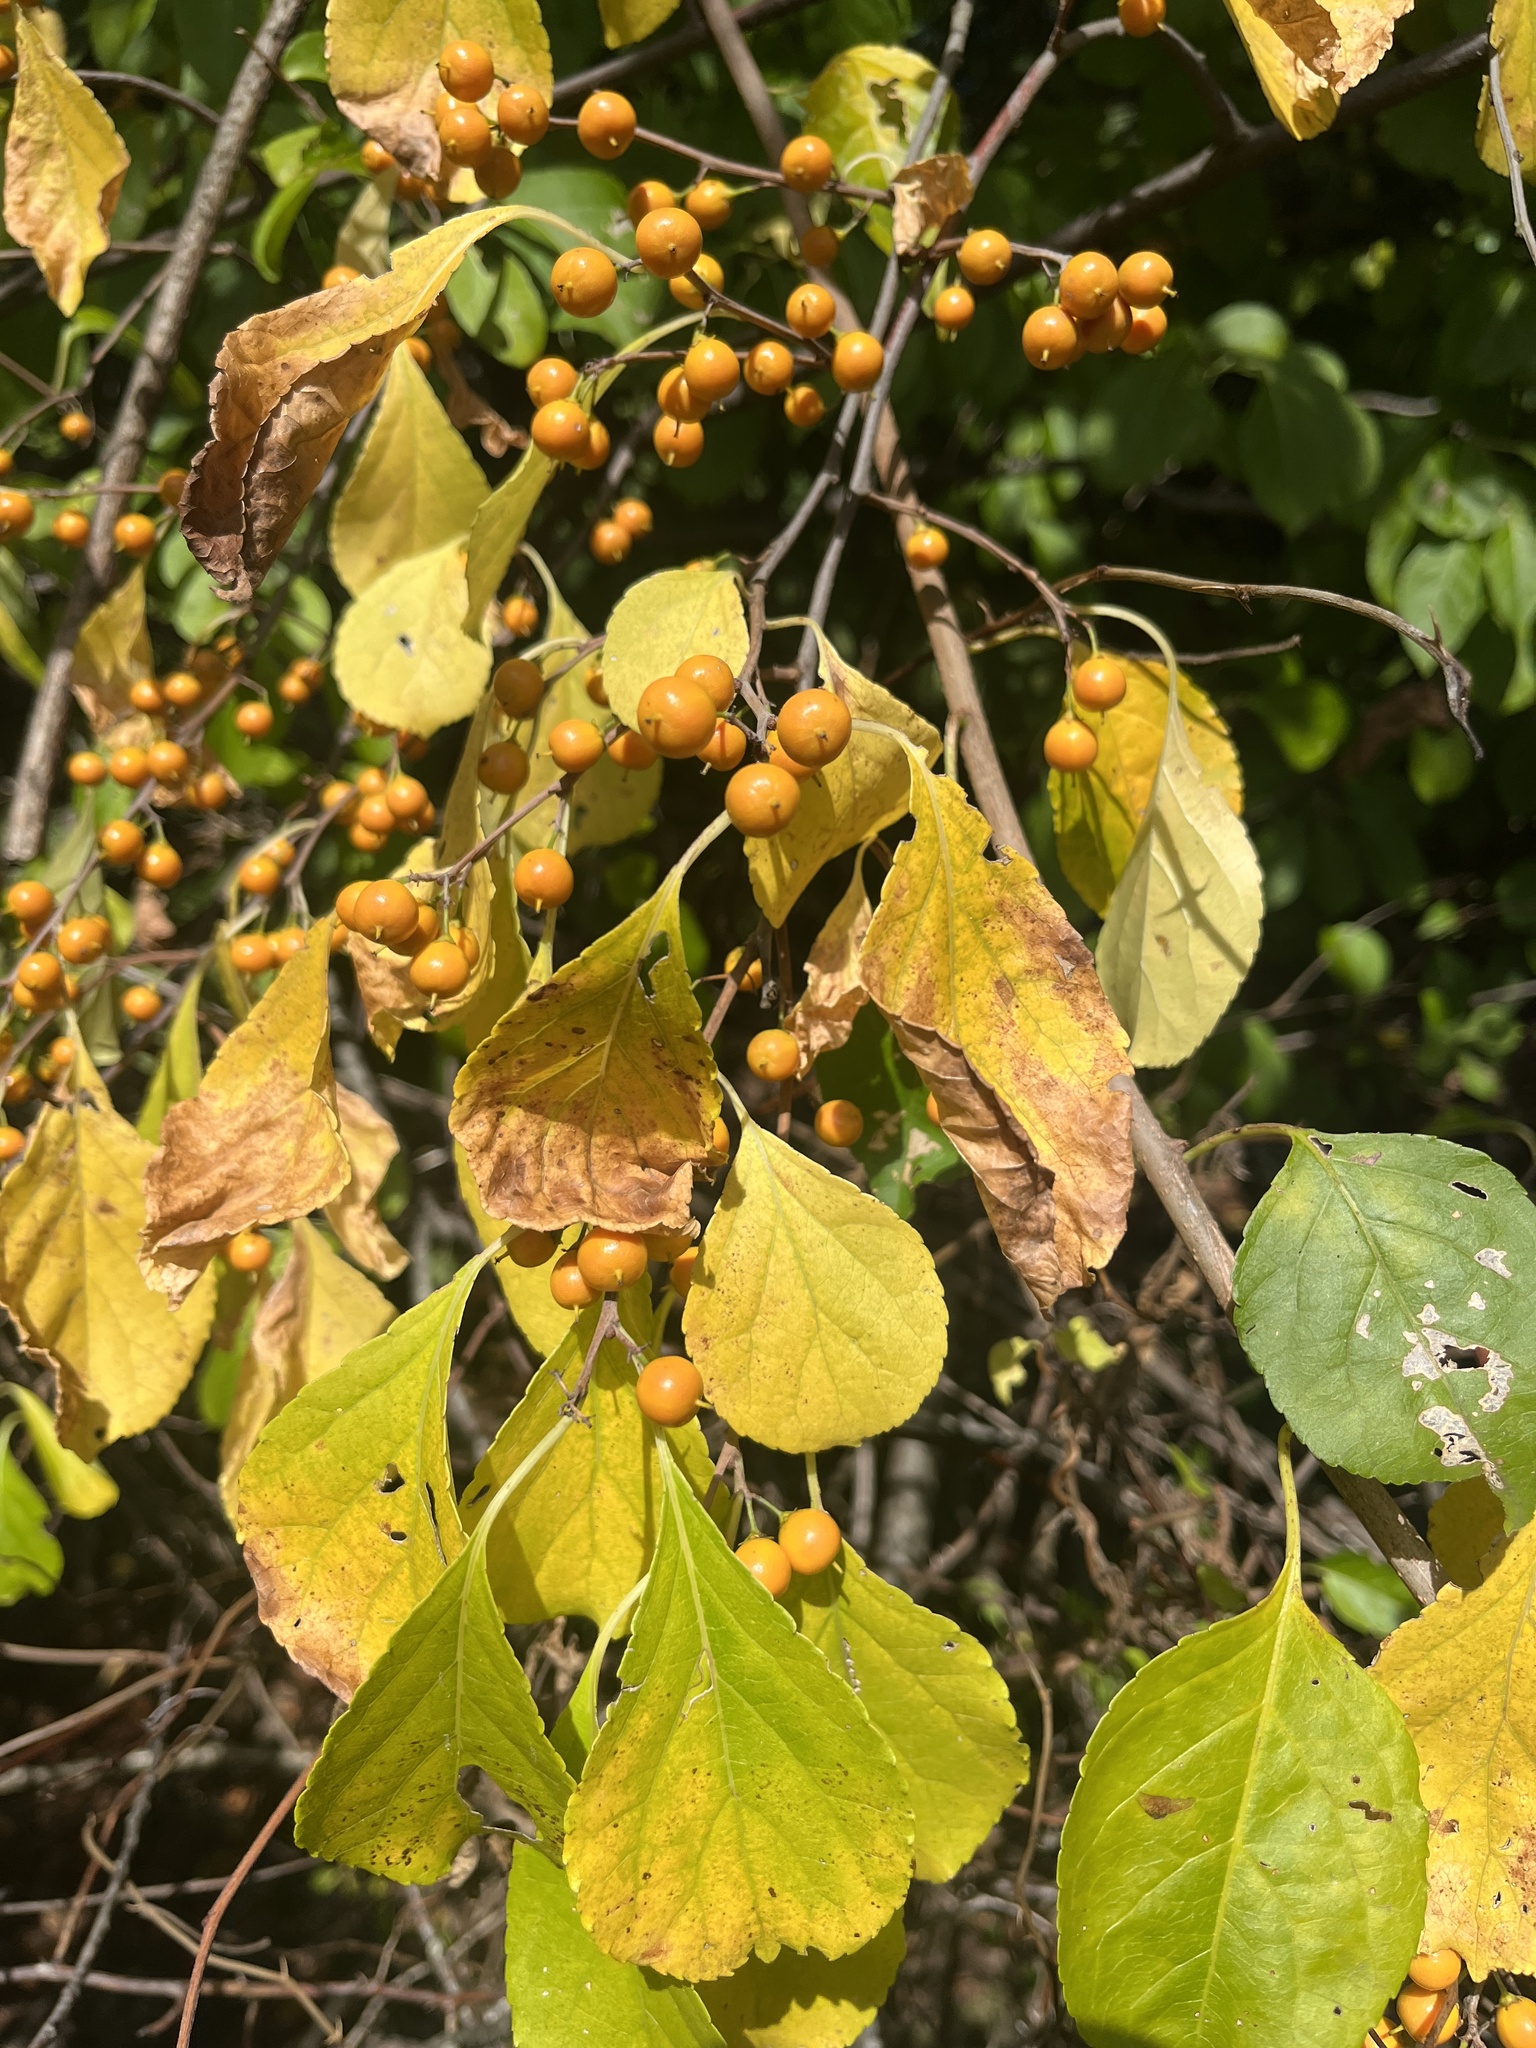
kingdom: Plantae
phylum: Tracheophyta
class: Magnoliopsida
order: Celastrales
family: Celastraceae
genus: Celastrus
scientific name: Celastrus orbiculatus
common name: Oriental bittersweet
